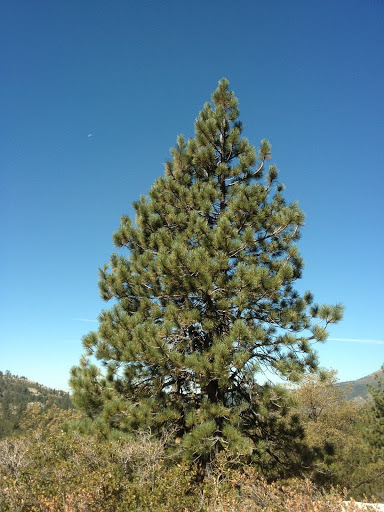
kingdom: Plantae
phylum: Tracheophyta
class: Pinopsida
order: Pinales
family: Pinaceae
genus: Pinus
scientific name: Pinus
